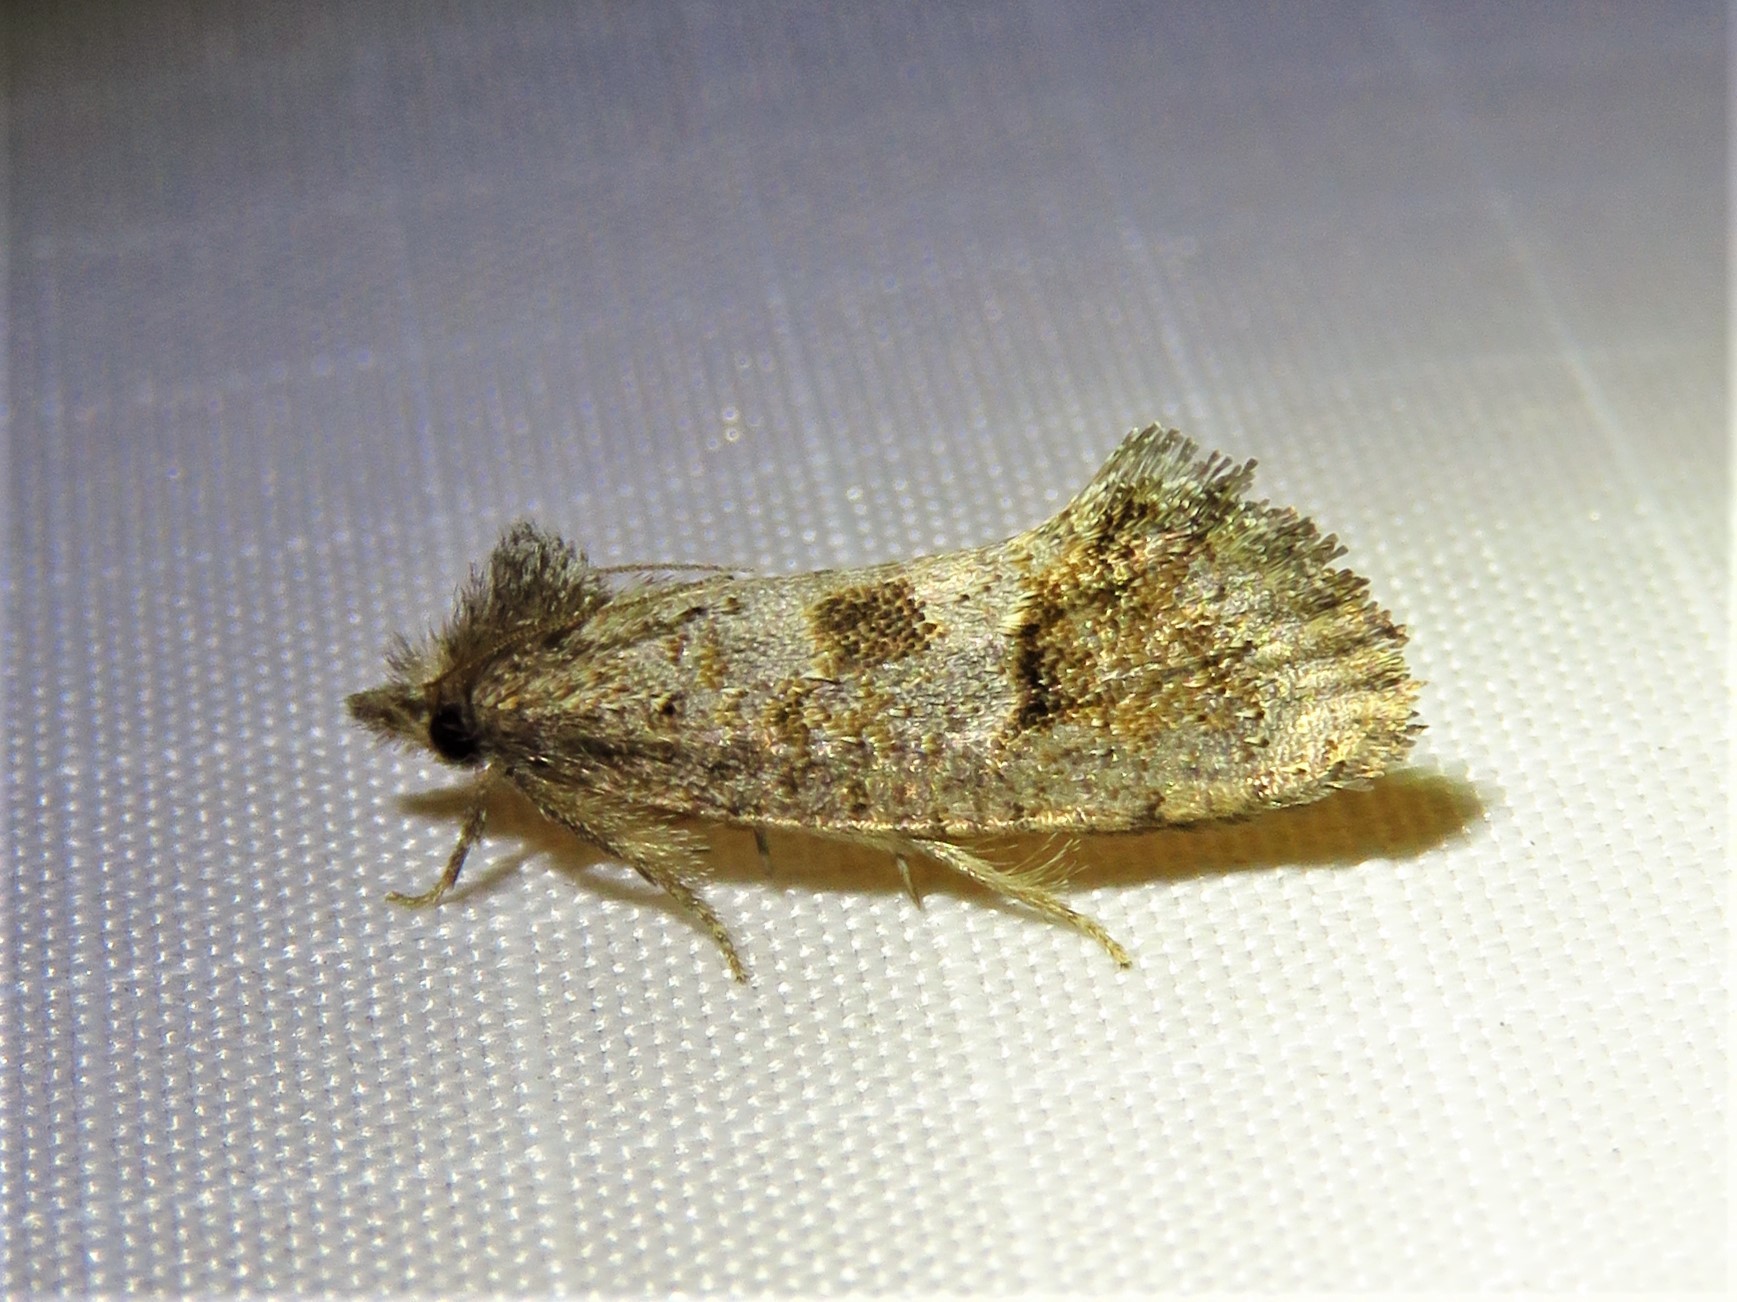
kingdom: Animalia
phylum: Arthropoda
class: Insecta
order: Lepidoptera
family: Tineidae
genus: Acrolophus
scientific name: Acrolophus texanella
